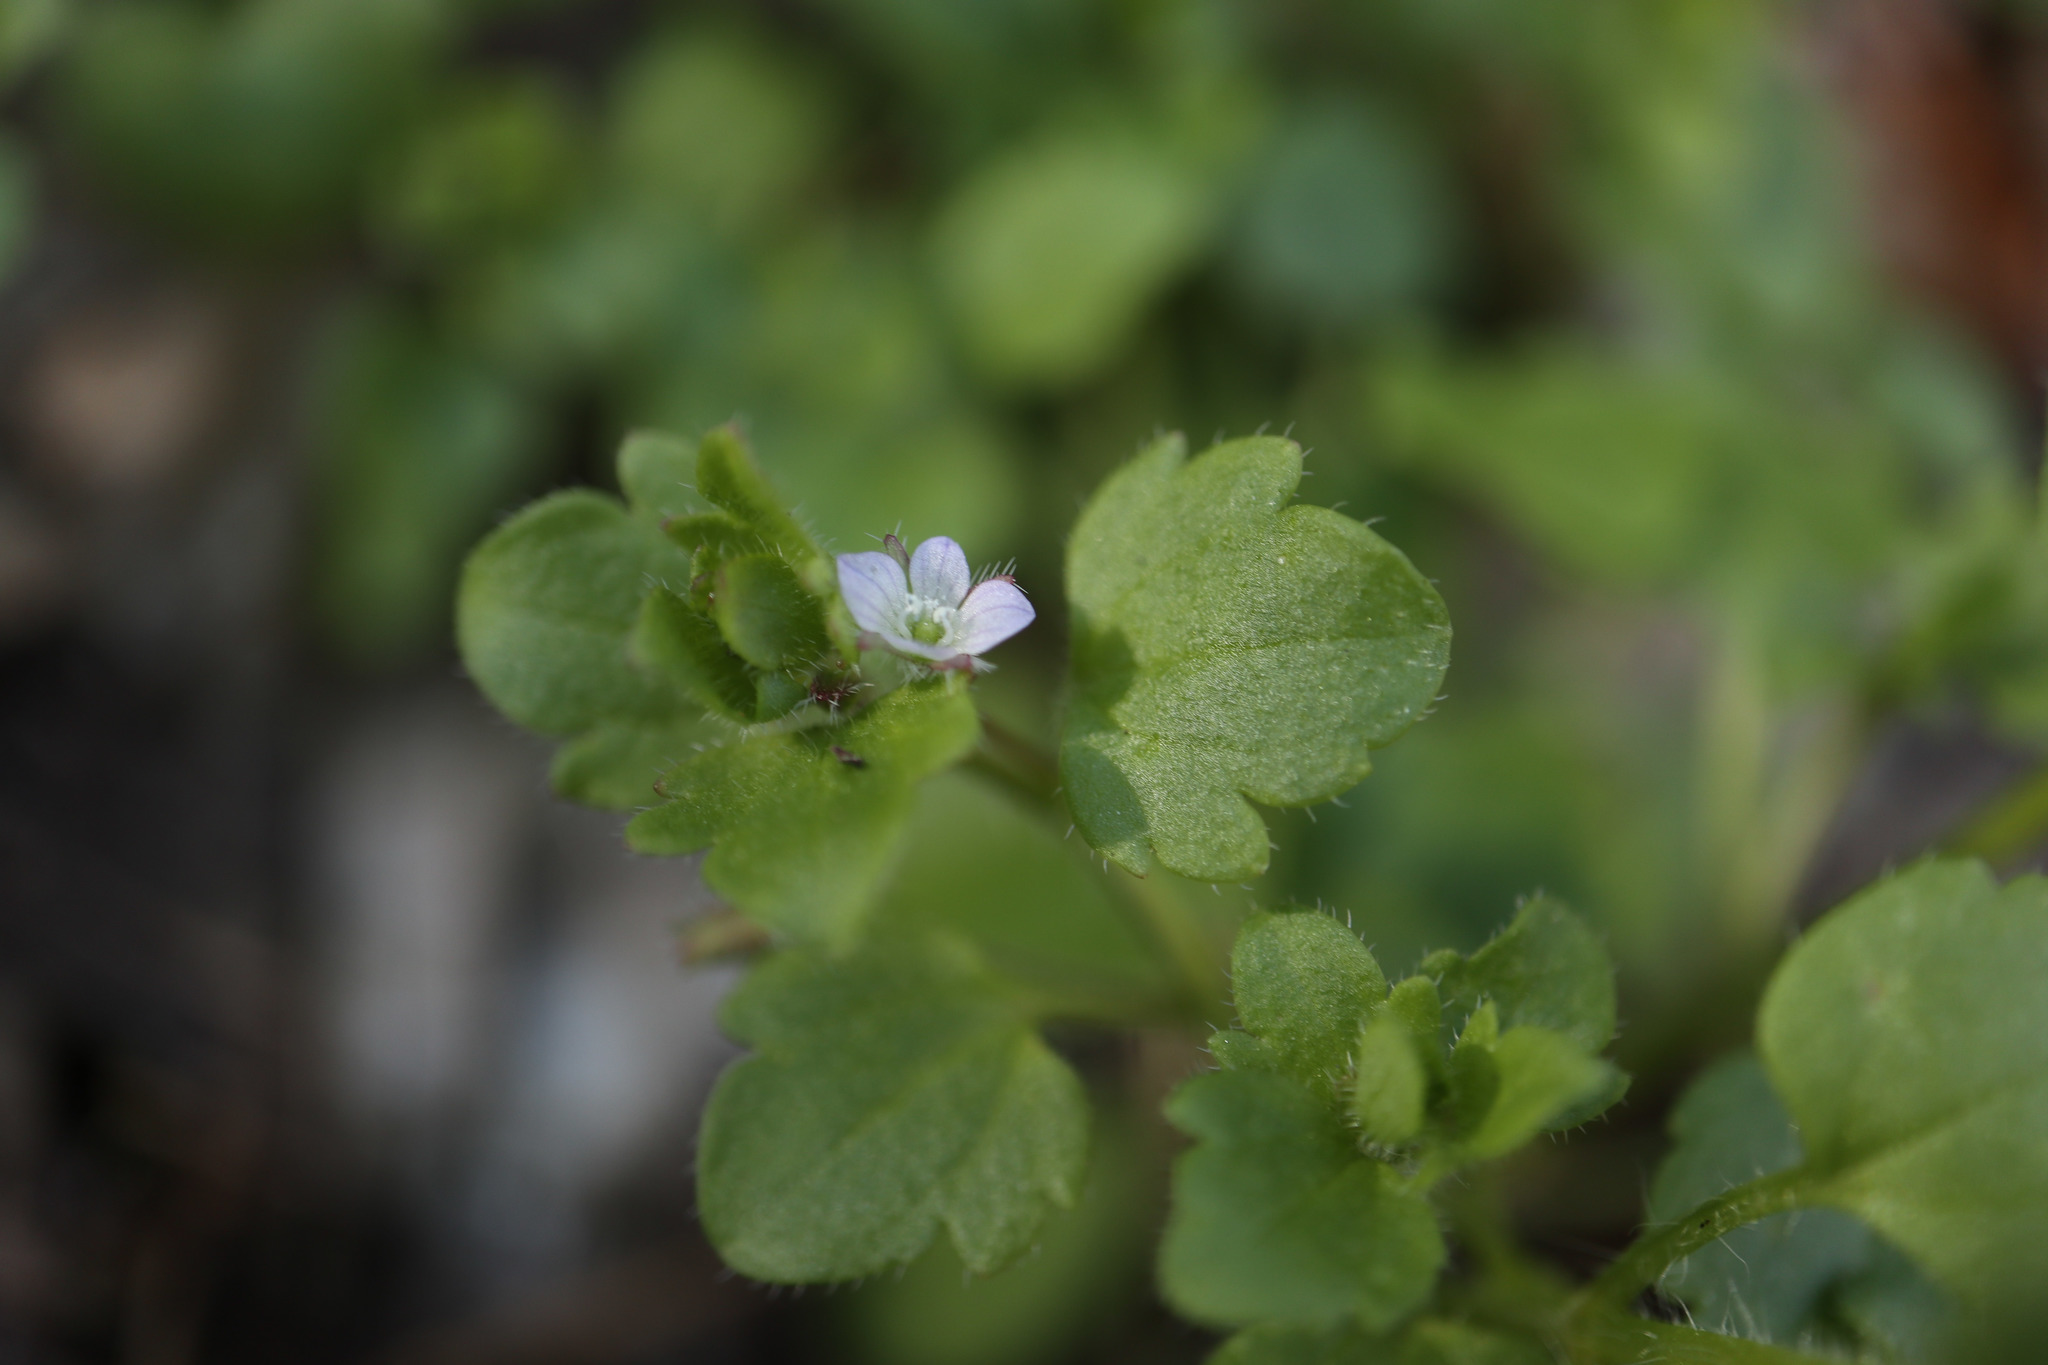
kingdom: Plantae
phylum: Tracheophyta
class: Magnoliopsida
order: Lamiales
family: Plantaginaceae
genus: Veronica
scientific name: Veronica sublobata
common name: False ivy-leaved speedwell
